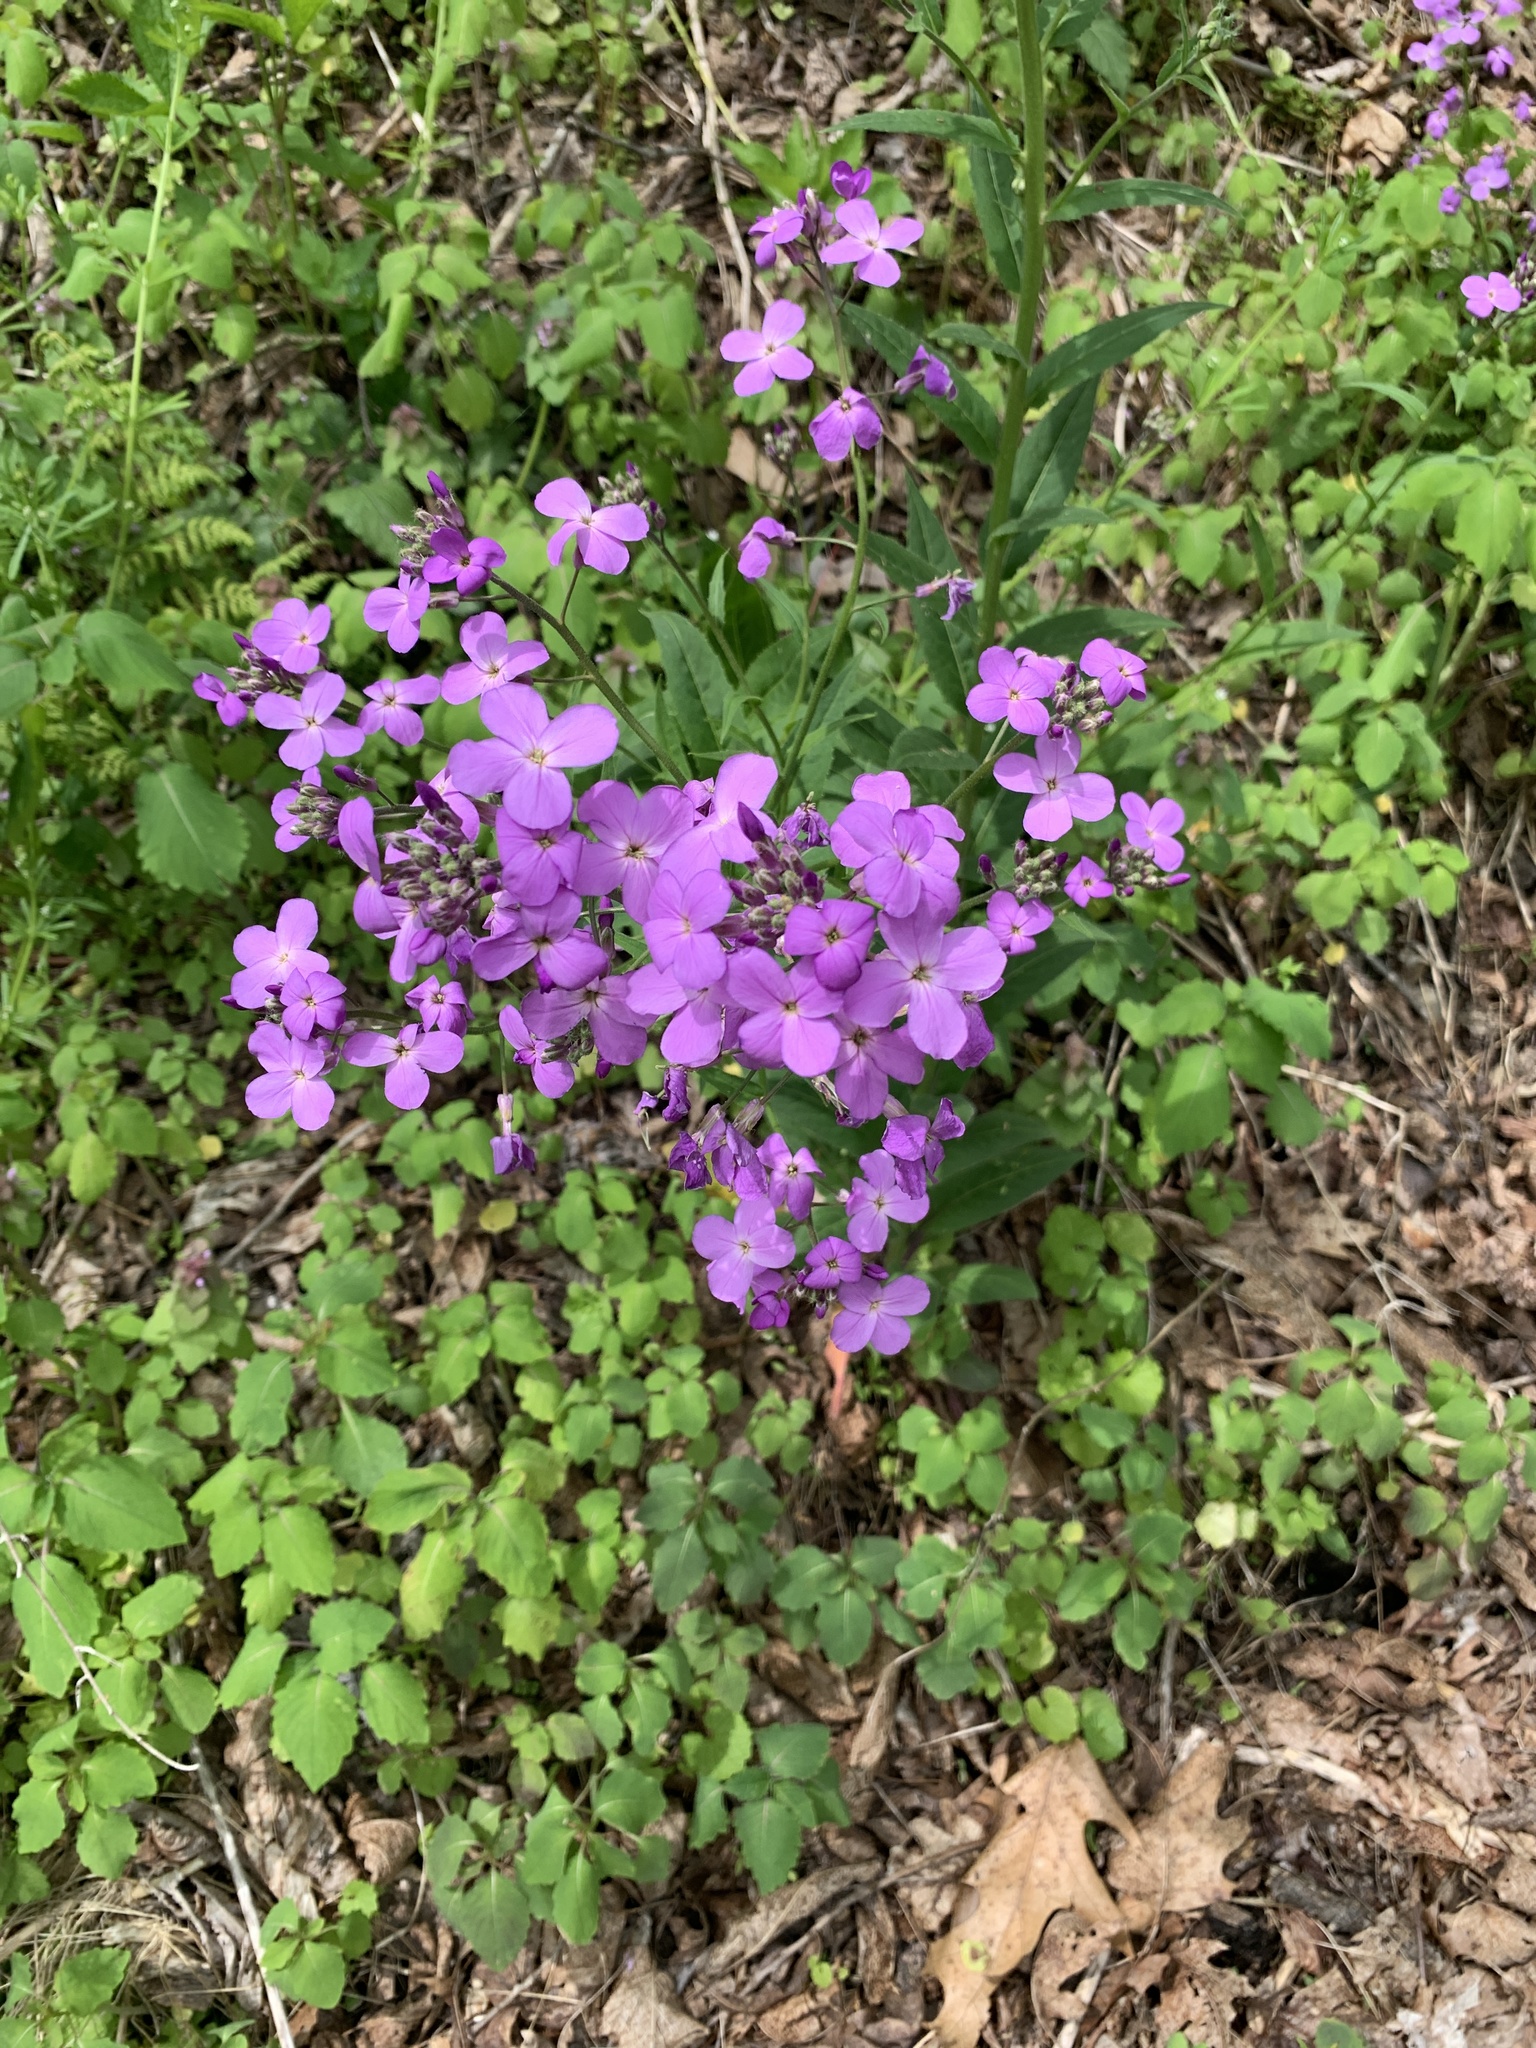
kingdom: Plantae
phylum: Tracheophyta
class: Magnoliopsida
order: Brassicales
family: Brassicaceae
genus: Hesperis
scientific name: Hesperis matronalis
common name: Dame's-violet
